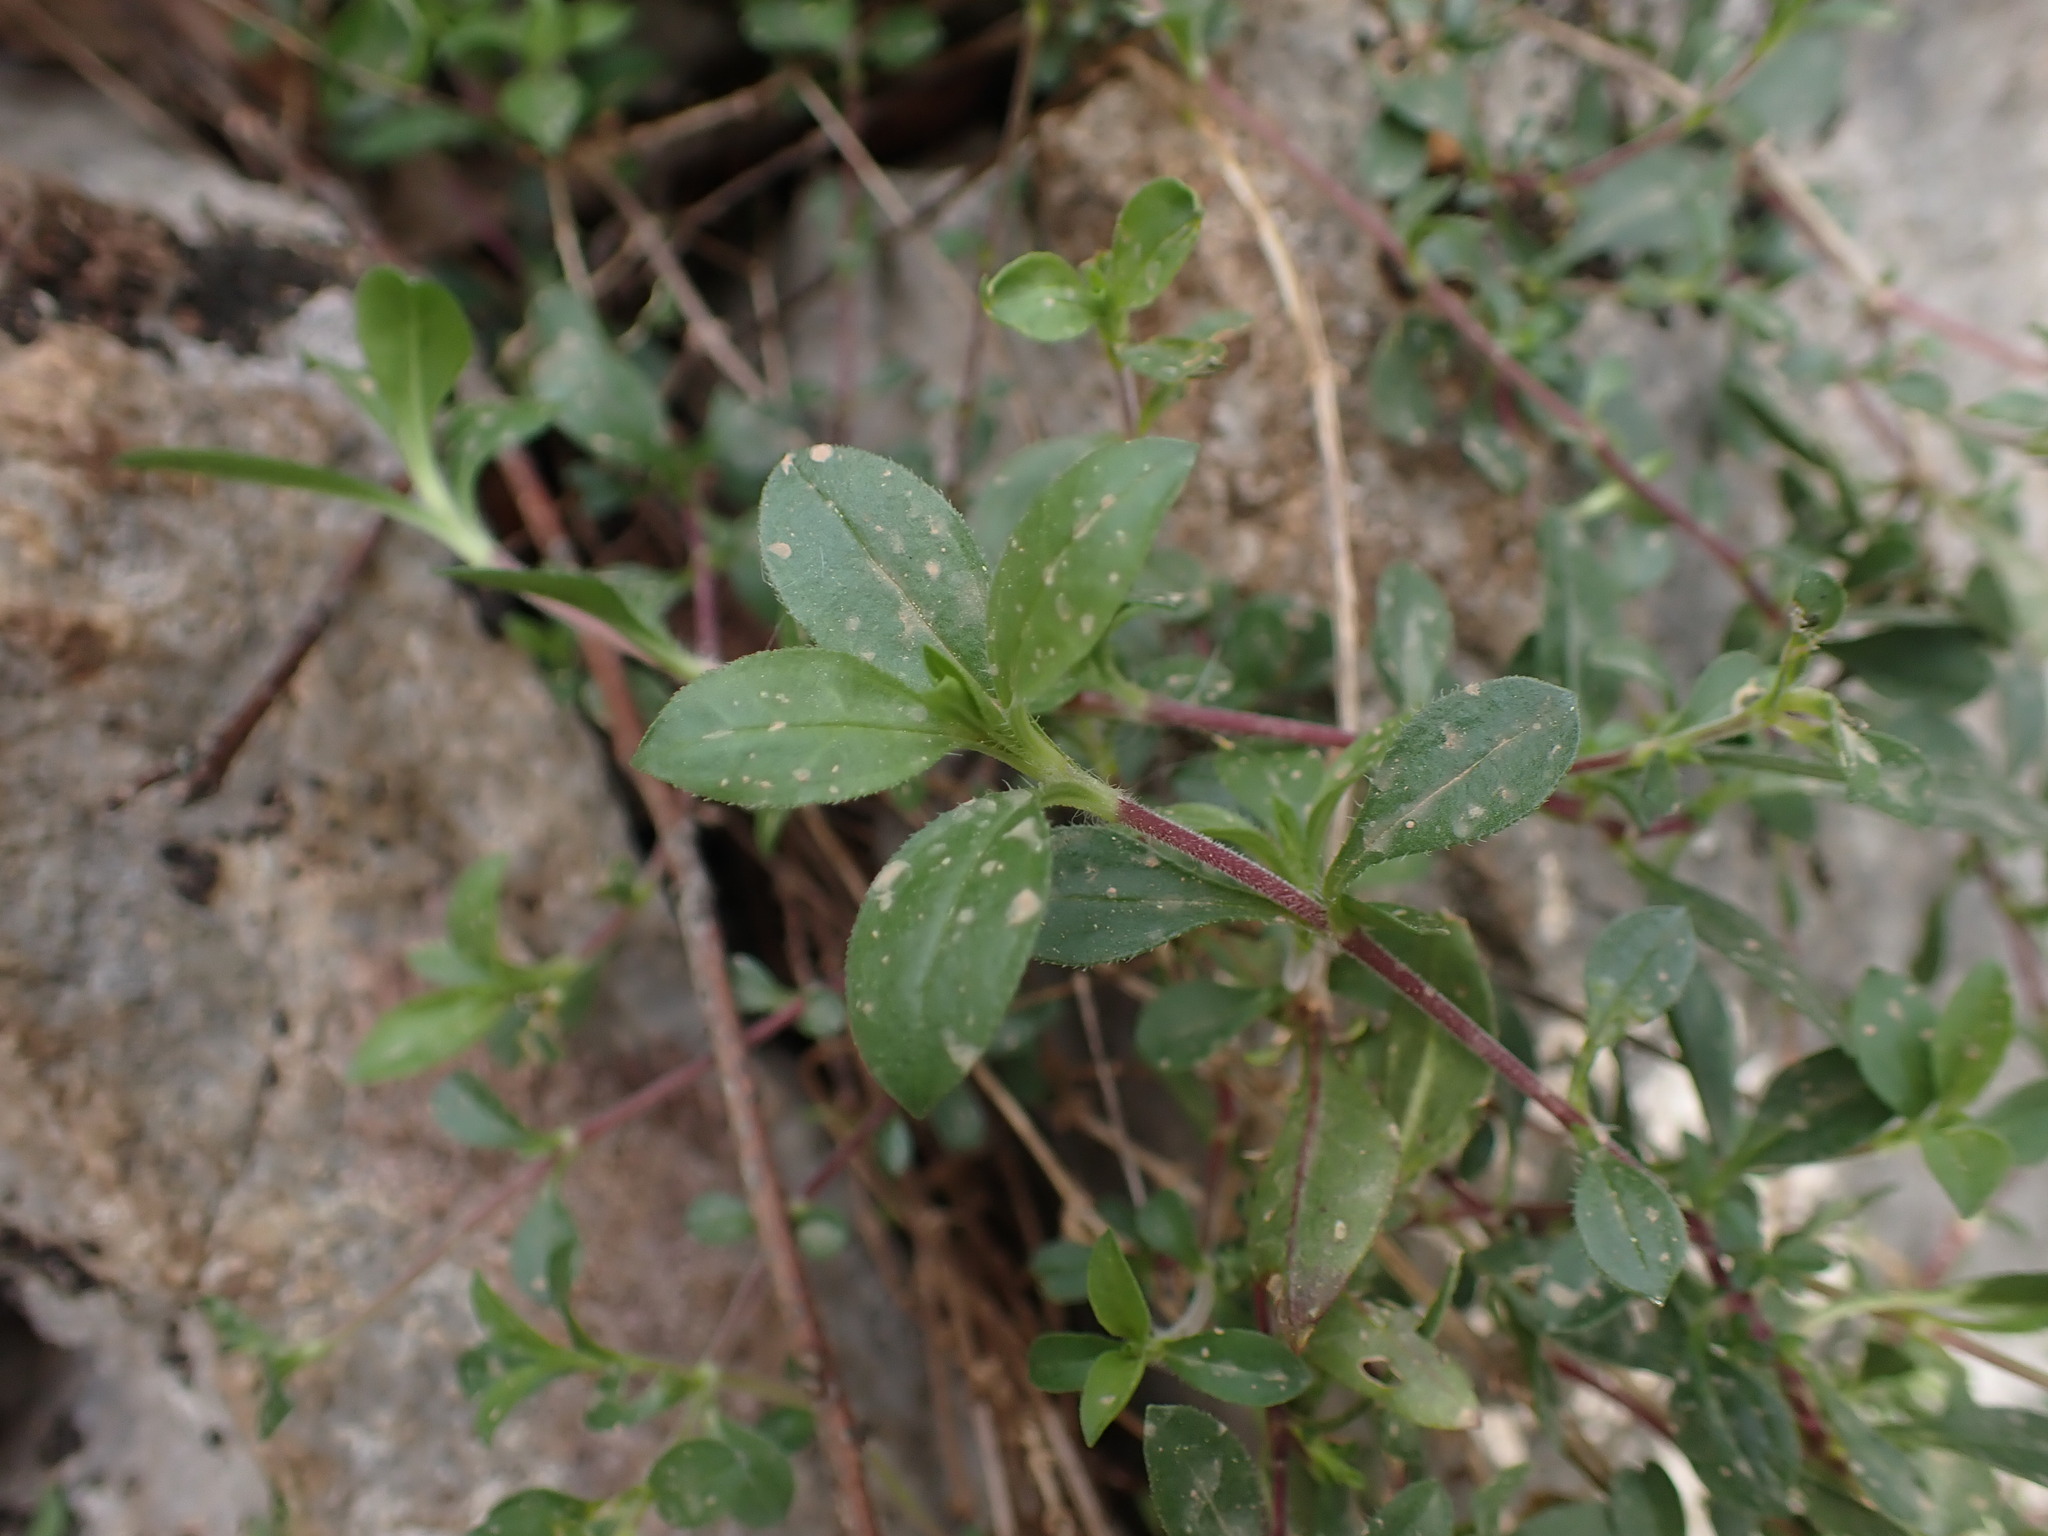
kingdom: Plantae
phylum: Tracheophyta
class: Magnoliopsida
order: Caryophyllales
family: Caryophyllaceae
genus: Saponaria
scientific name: Saponaria ocymoides
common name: Rock soapwort
